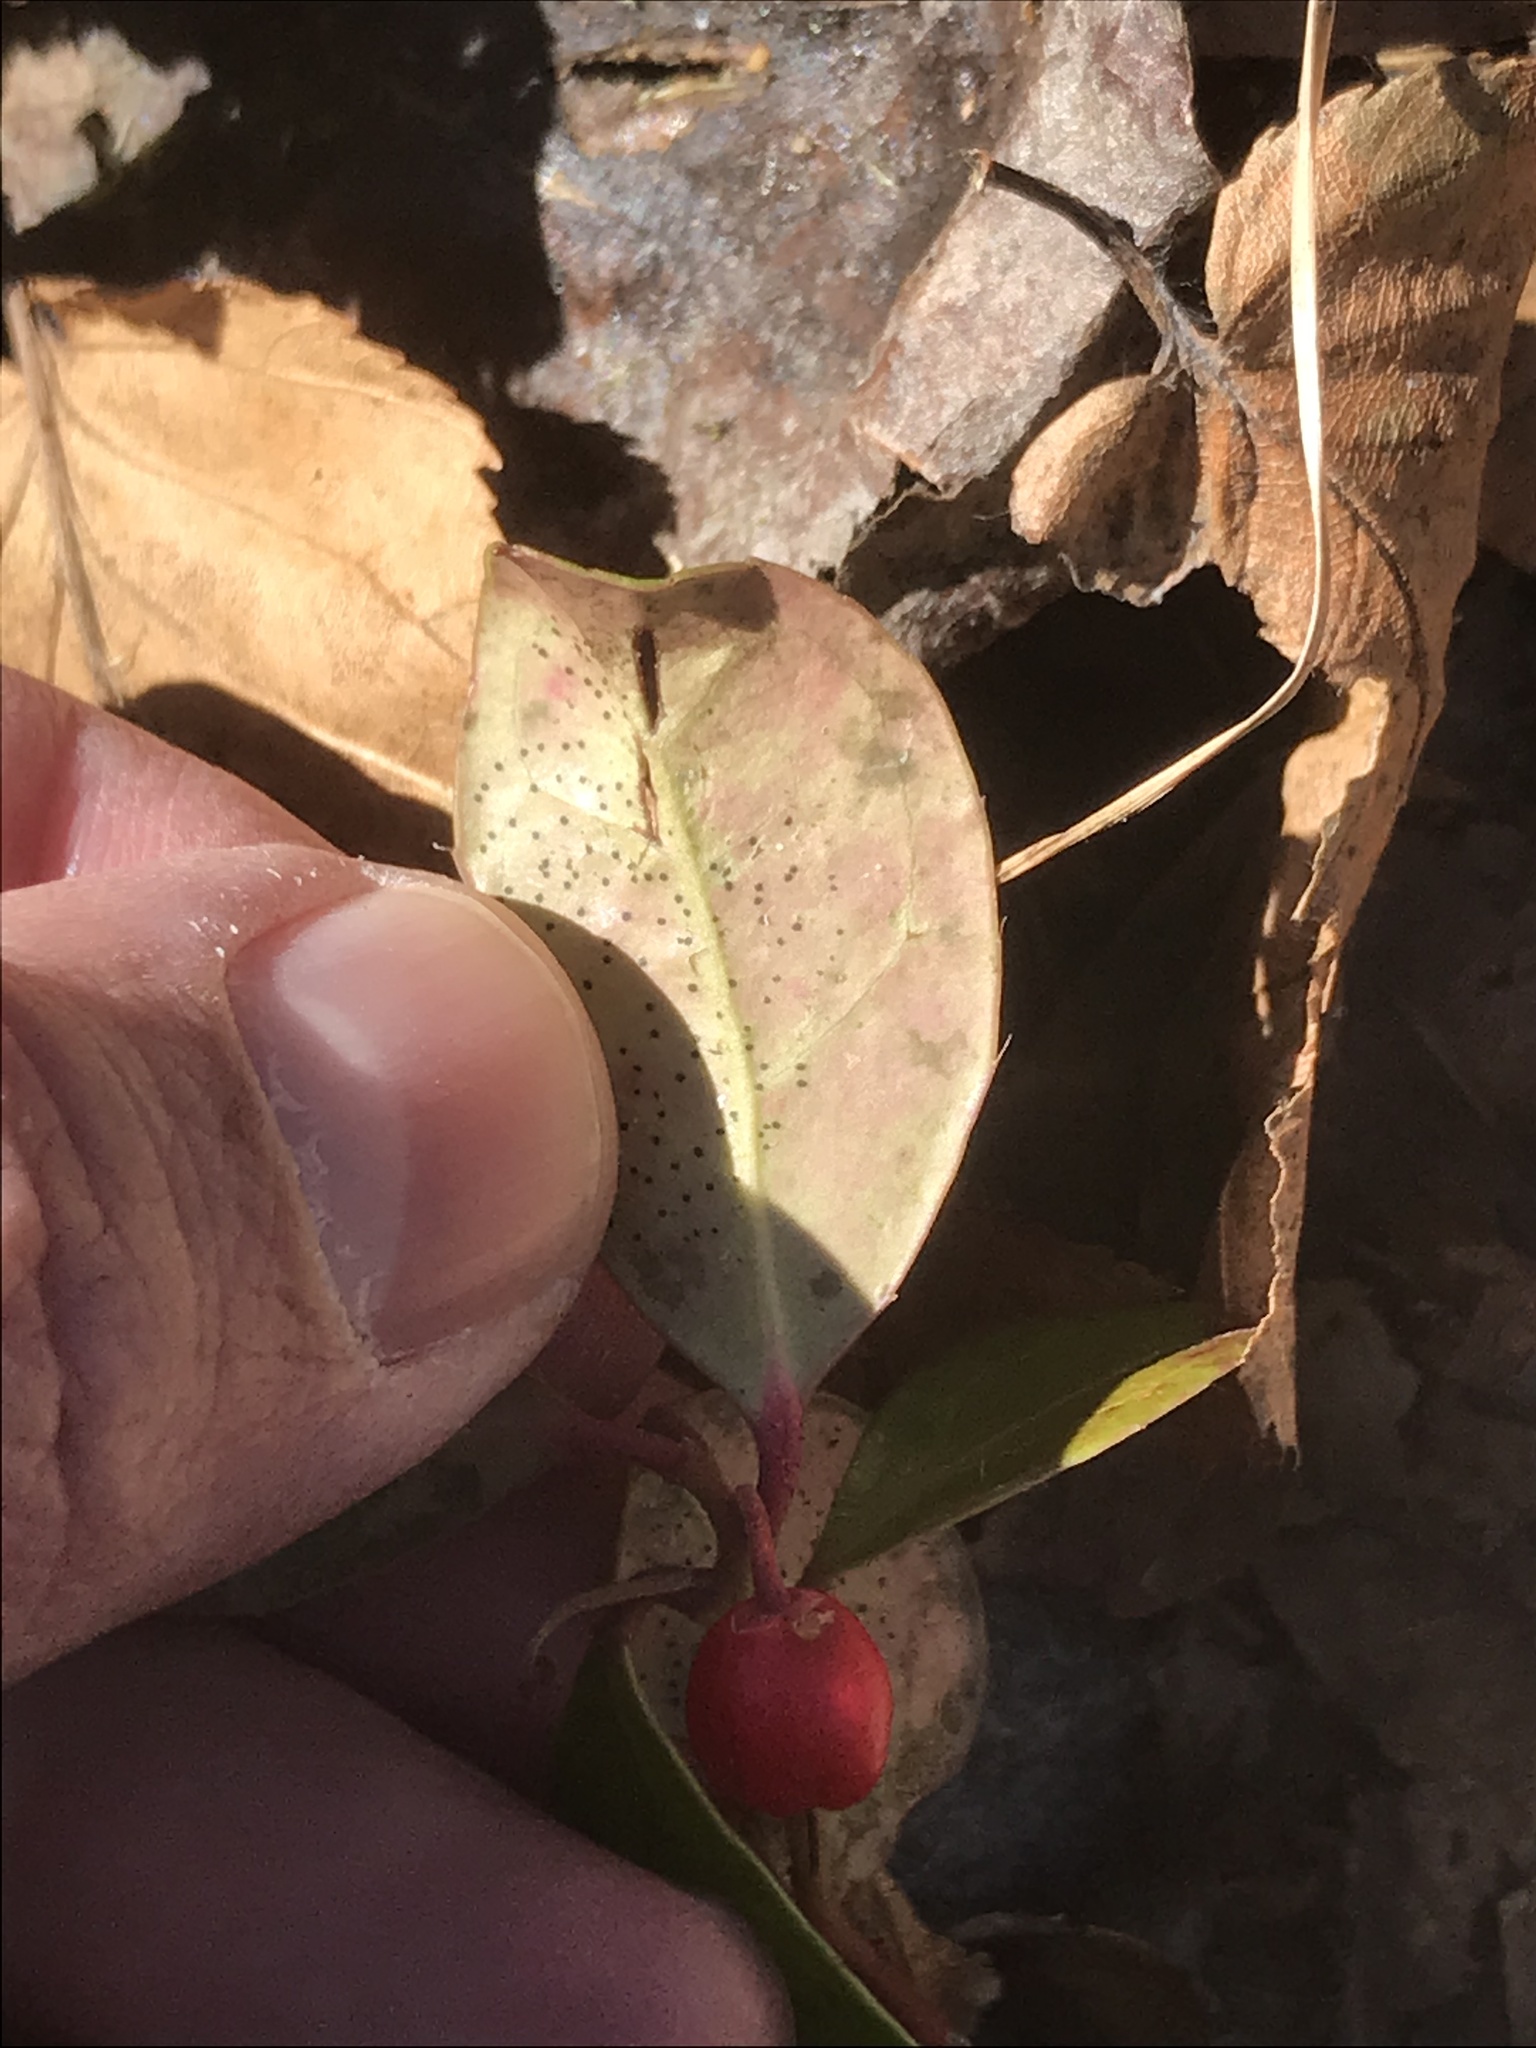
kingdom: Plantae
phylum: Tracheophyta
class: Magnoliopsida
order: Ericales
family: Ericaceae
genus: Gaultheria
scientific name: Gaultheria procumbens
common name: Checkerberry
